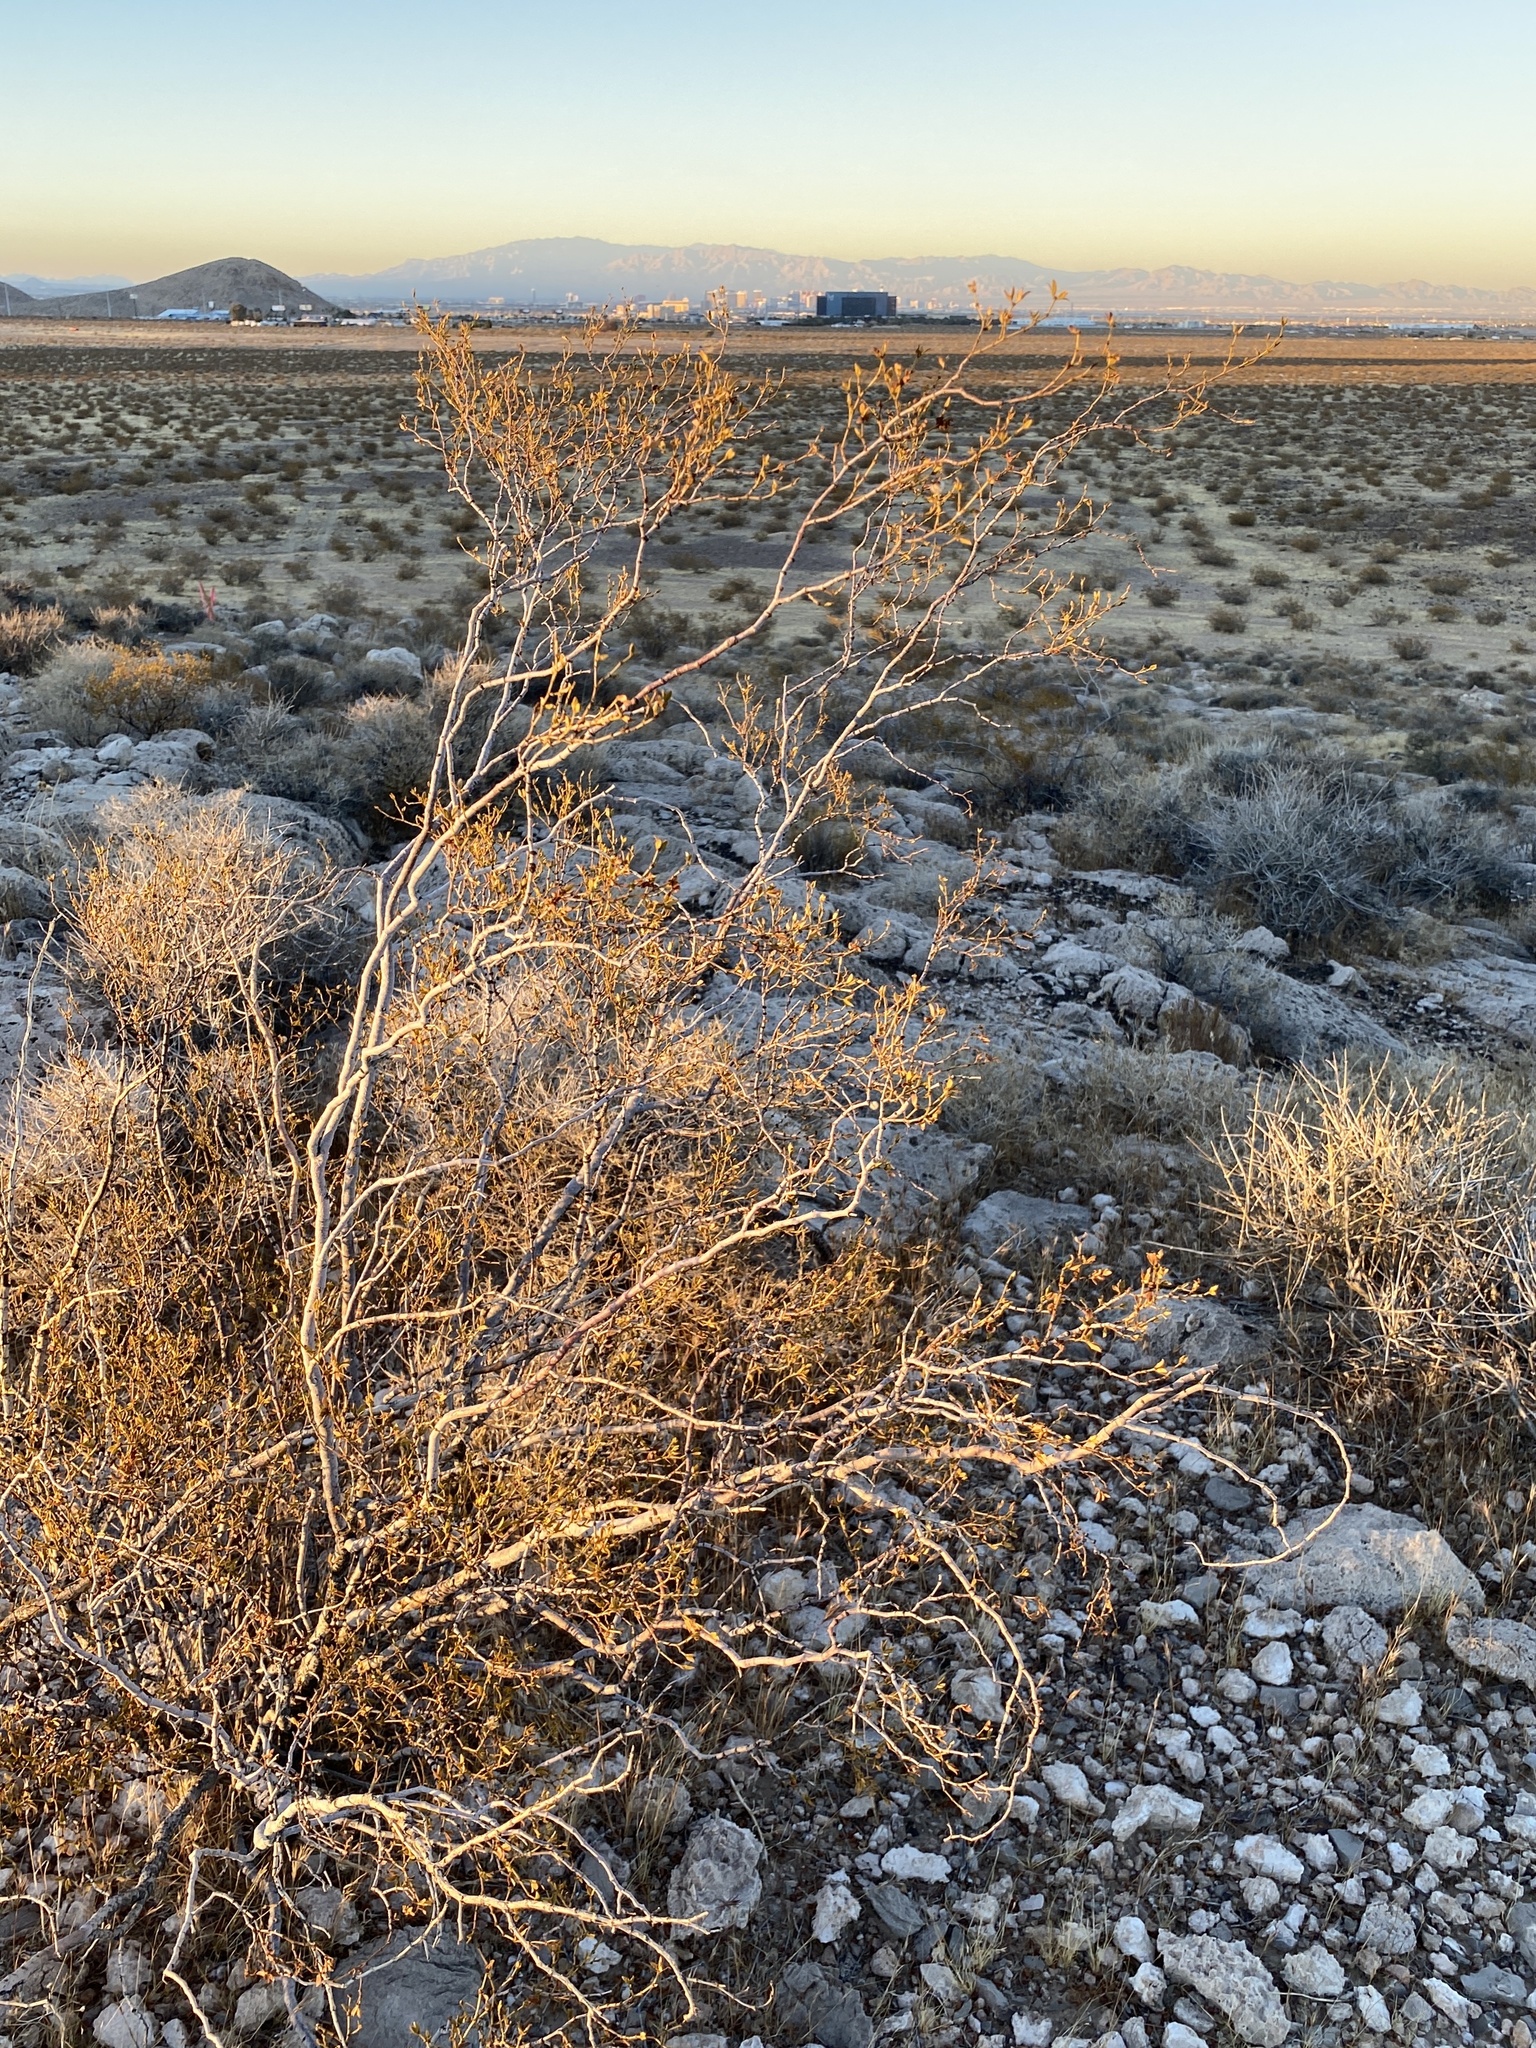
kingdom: Plantae
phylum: Tracheophyta
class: Magnoliopsida
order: Zygophyllales
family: Zygophyllaceae
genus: Larrea
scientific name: Larrea tridentata
